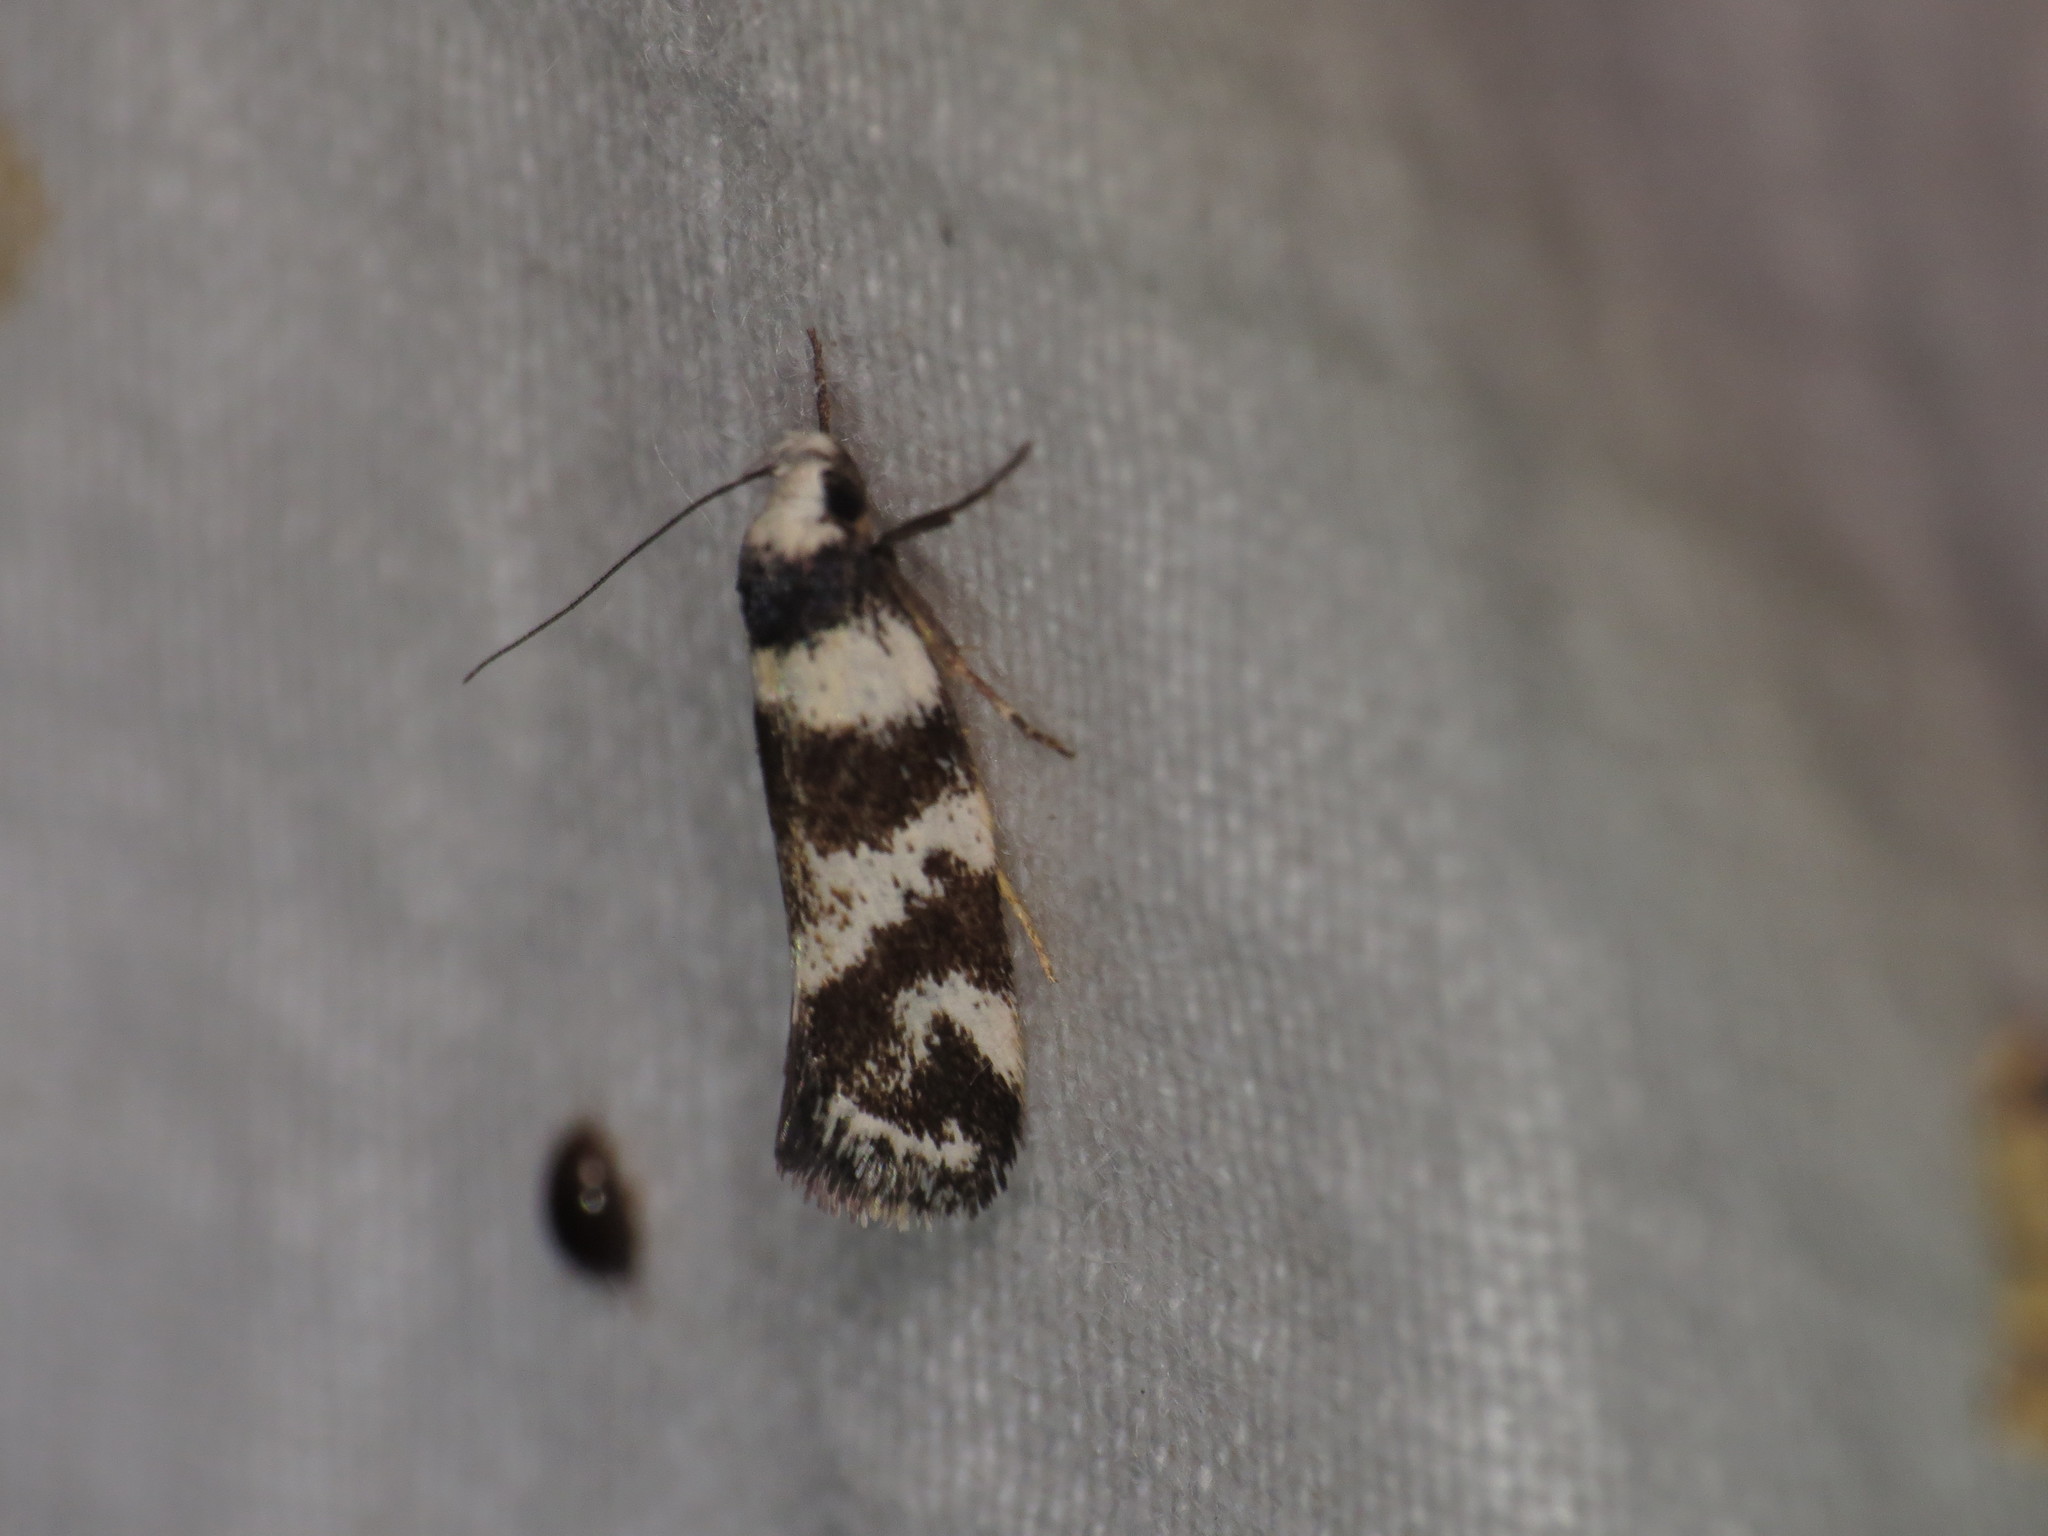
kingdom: Animalia
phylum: Arthropoda
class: Insecta
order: Lepidoptera
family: Oecophoridae
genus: Isomoralla
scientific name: Isomoralla eriscota
